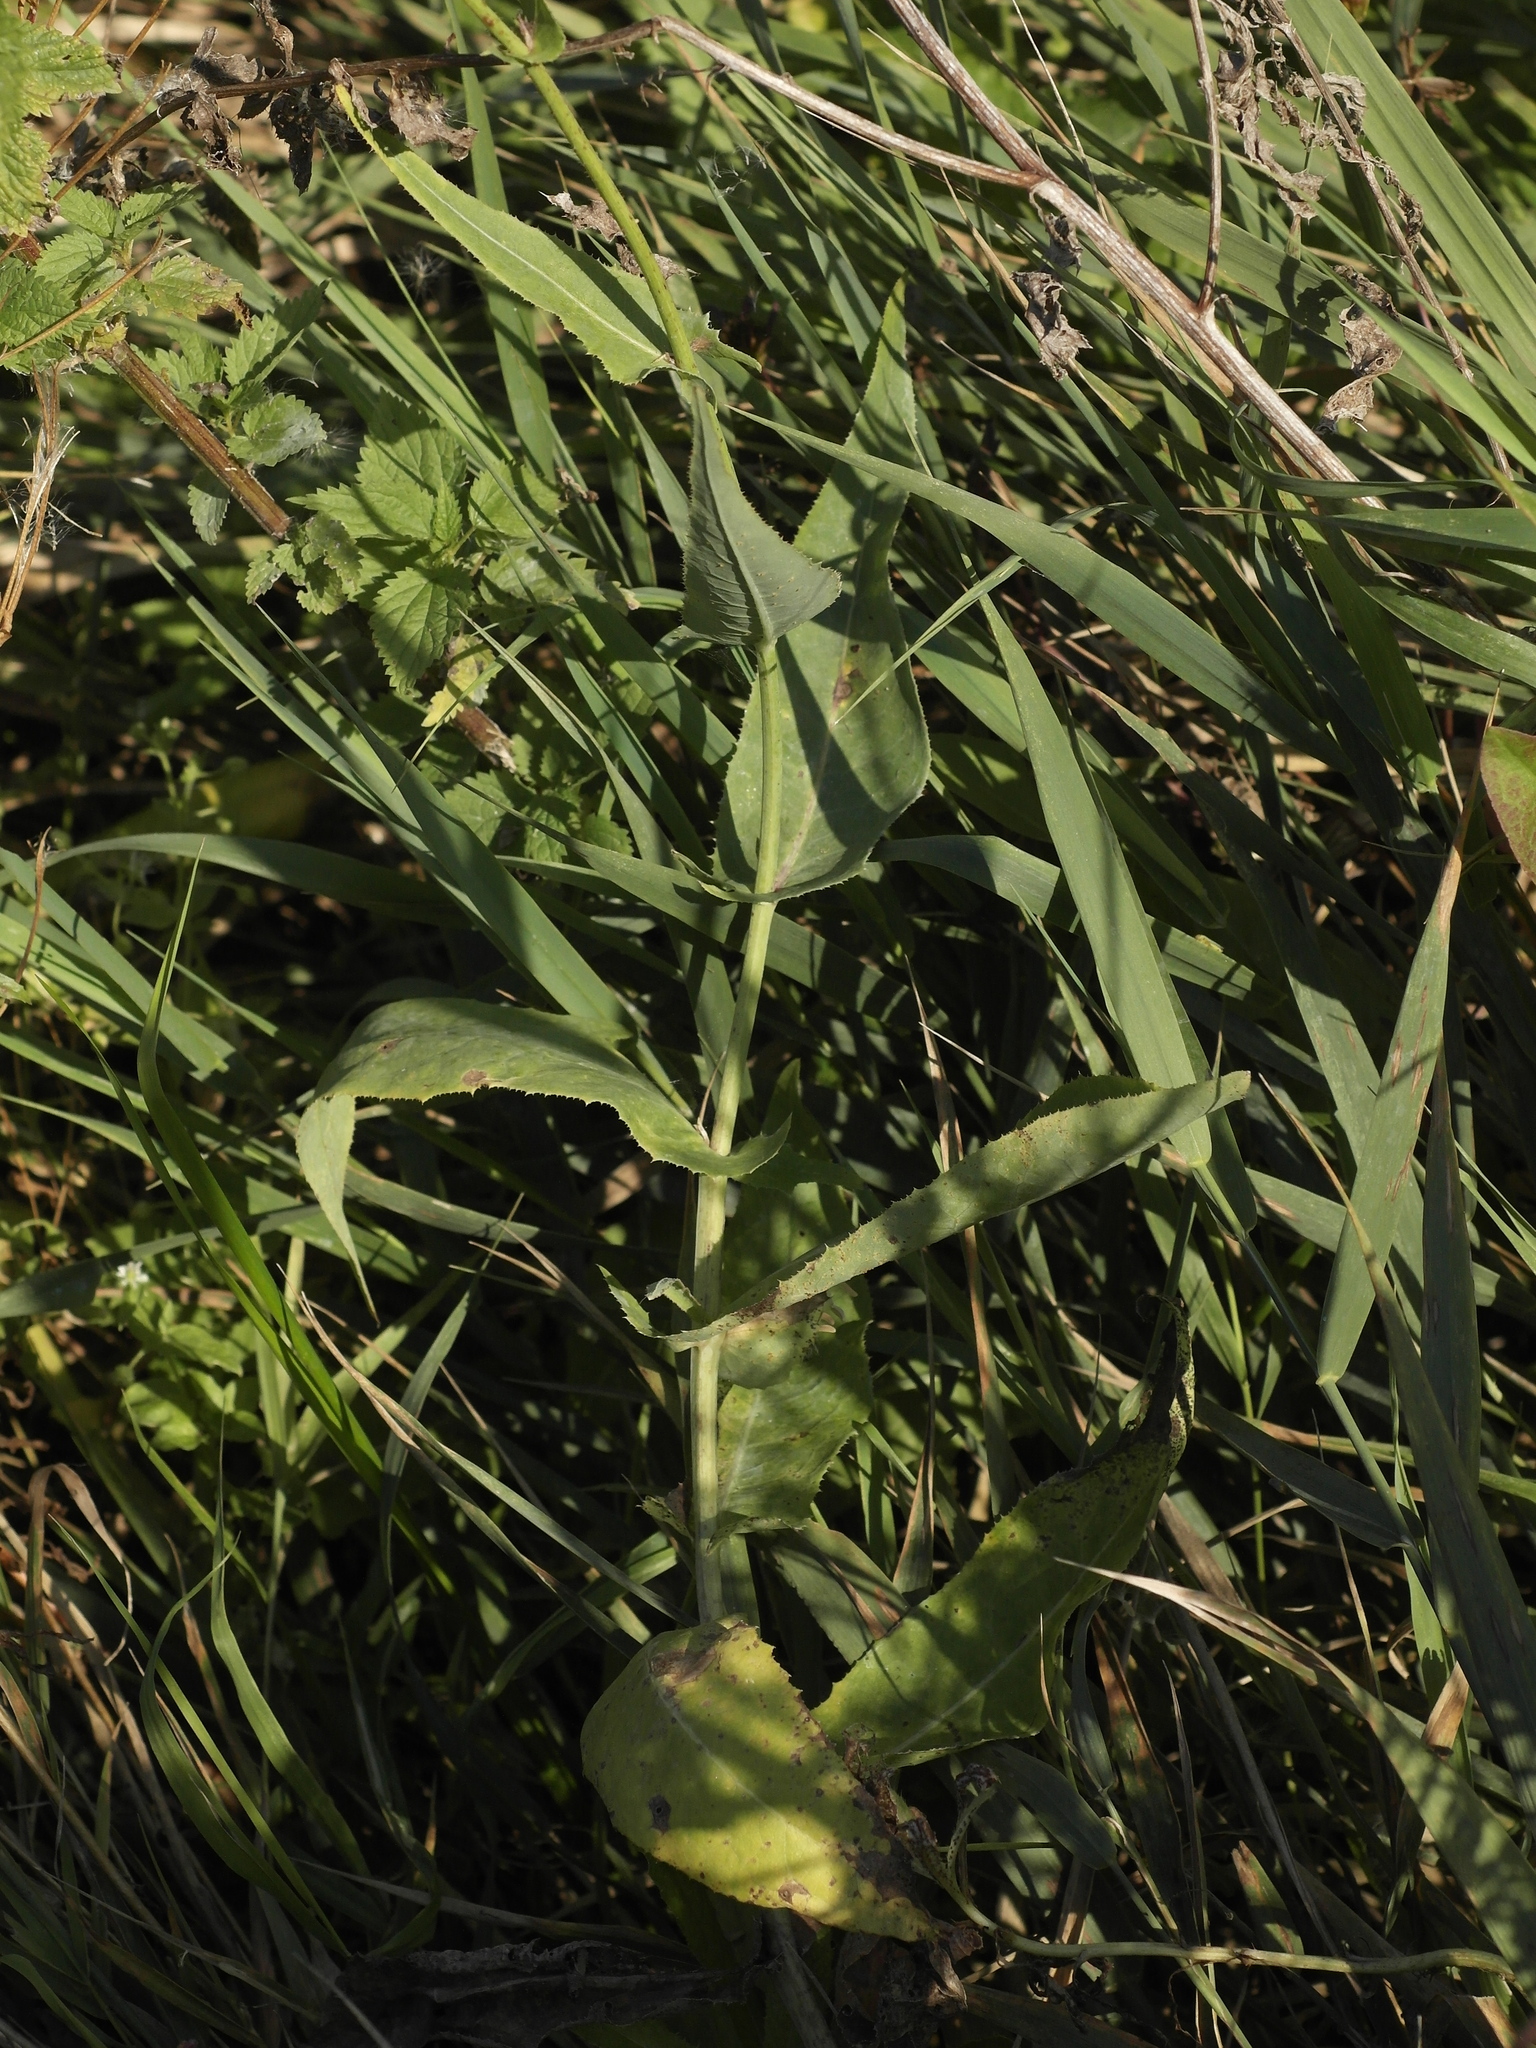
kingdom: Plantae
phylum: Tracheophyta
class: Magnoliopsida
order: Asterales
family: Asteraceae
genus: Sonchus
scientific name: Sonchus palustris
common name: Marsh sow-thistle
